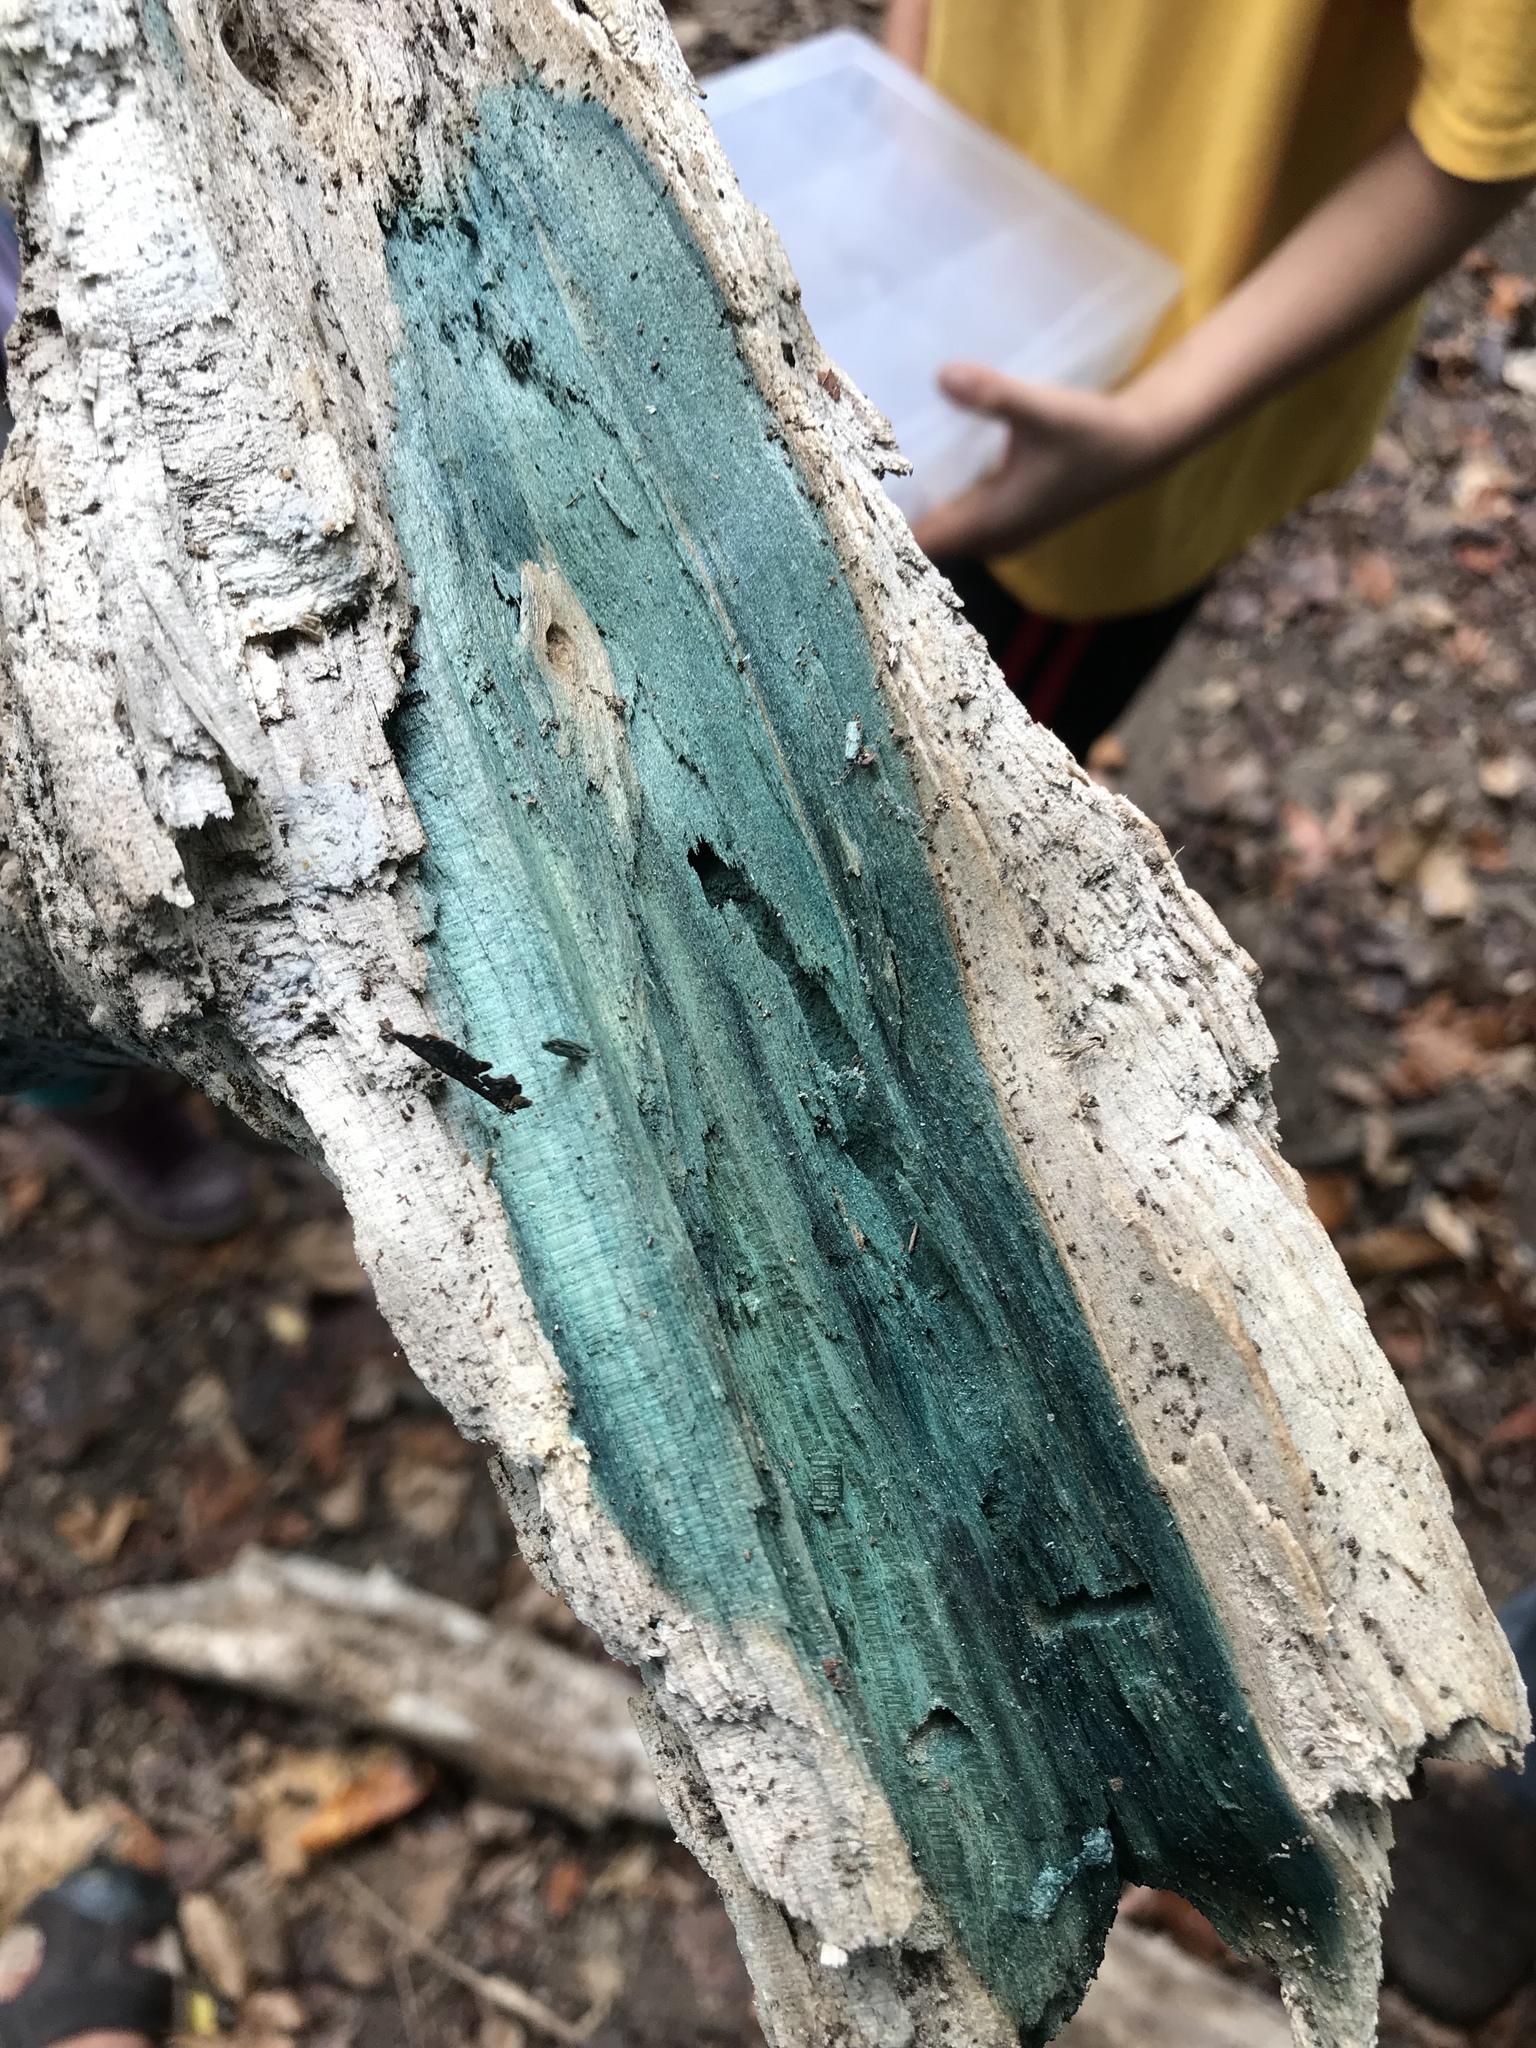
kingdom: Fungi
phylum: Ascomycota
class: Leotiomycetes
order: Helotiales
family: Chlorociboriaceae
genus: Chlorociboria
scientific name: Chlorociboria
